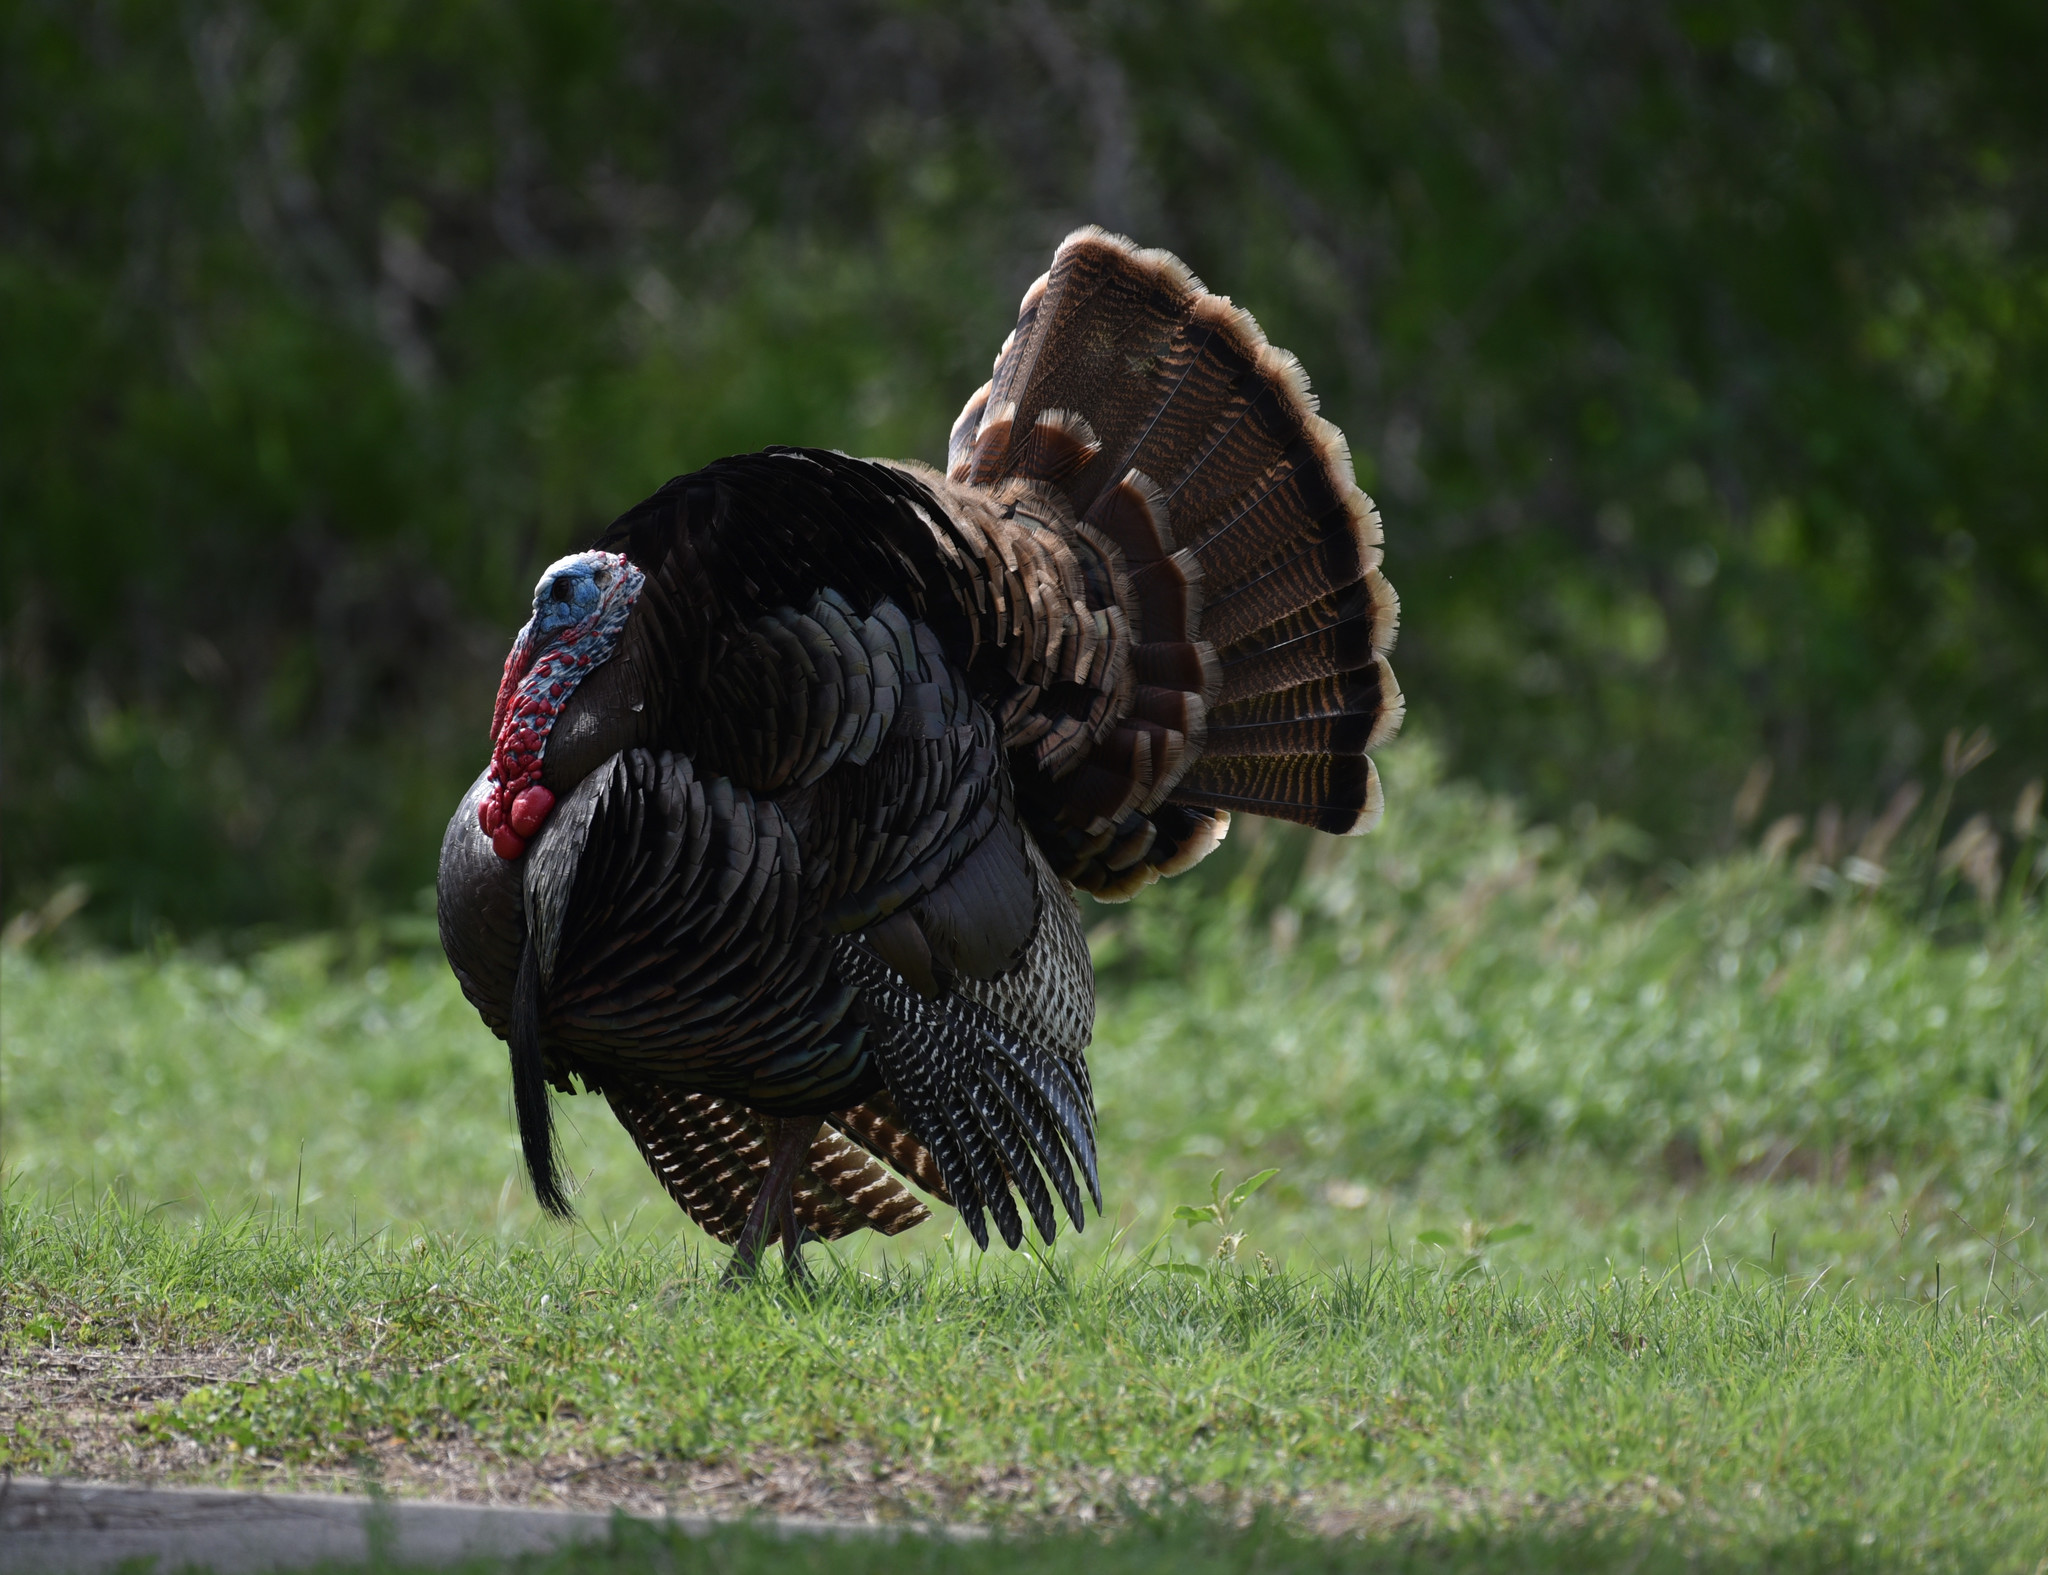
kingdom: Animalia
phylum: Chordata
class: Aves
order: Galliformes
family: Phasianidae
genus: Meleagris
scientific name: Meleagris gallopavo
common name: Wild turkey
